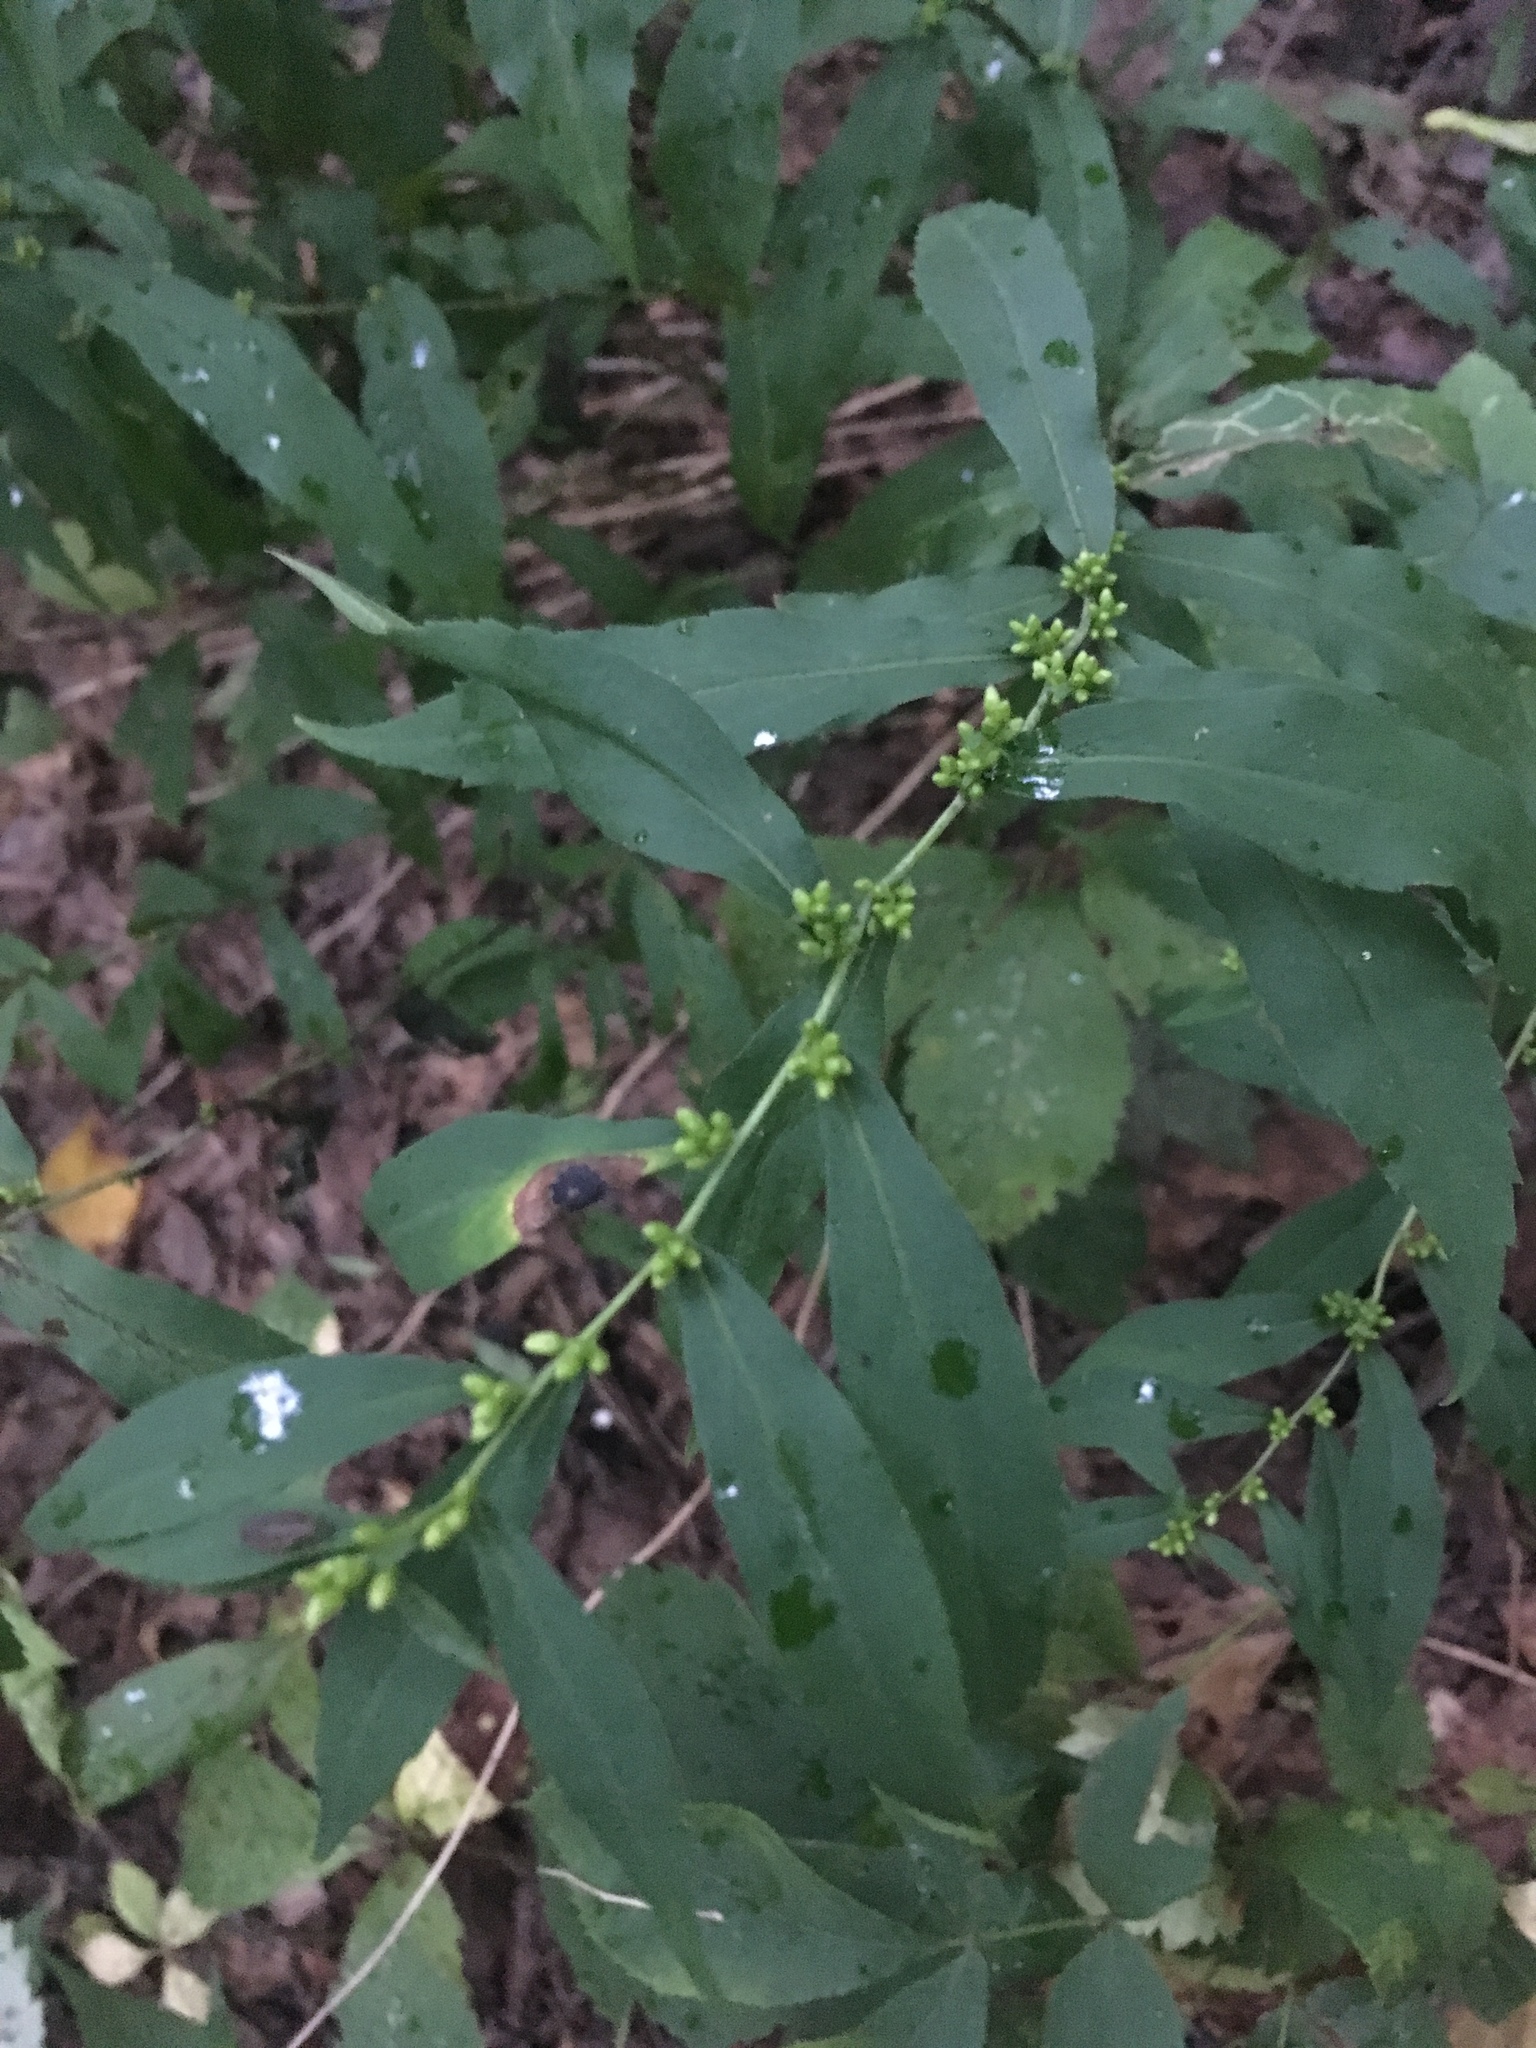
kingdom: Plantae
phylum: Tracheophyta
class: Magnoliopsida
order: Asterales
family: Asteraceae
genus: Solidago
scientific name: Solidago caesia
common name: Woodland goldenrod
